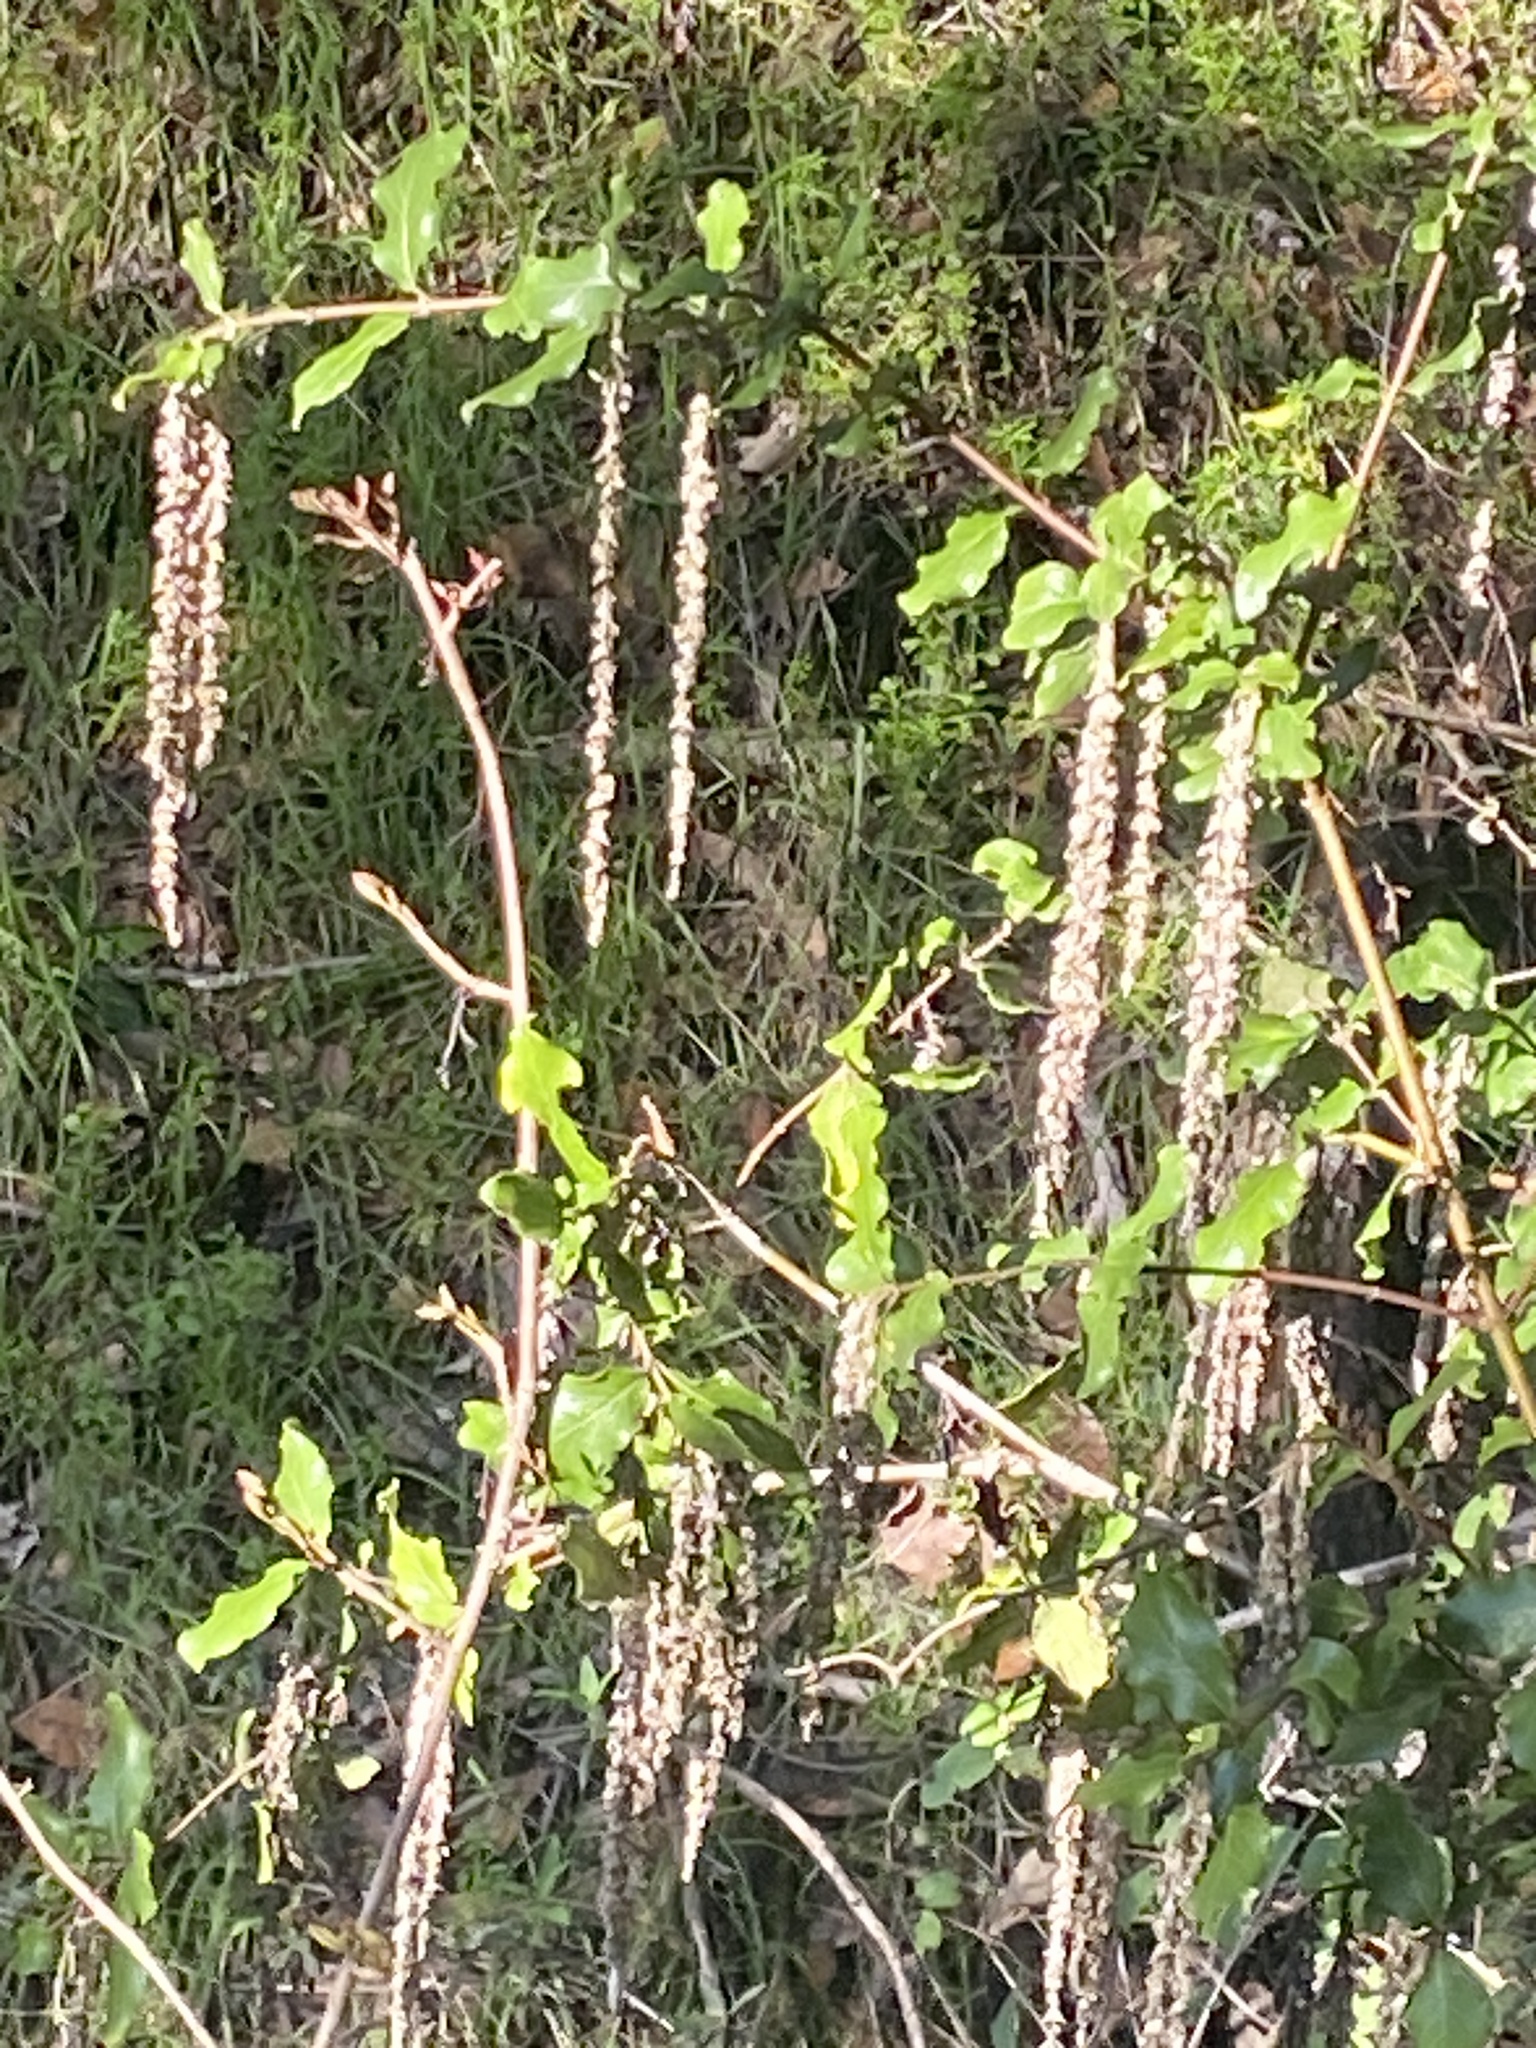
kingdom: Plantae
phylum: Tracheophyta
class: Magnoliopsida
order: Garryales
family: Garryaceae
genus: Garrya
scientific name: Garrya elliptica
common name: Silk-tassel
